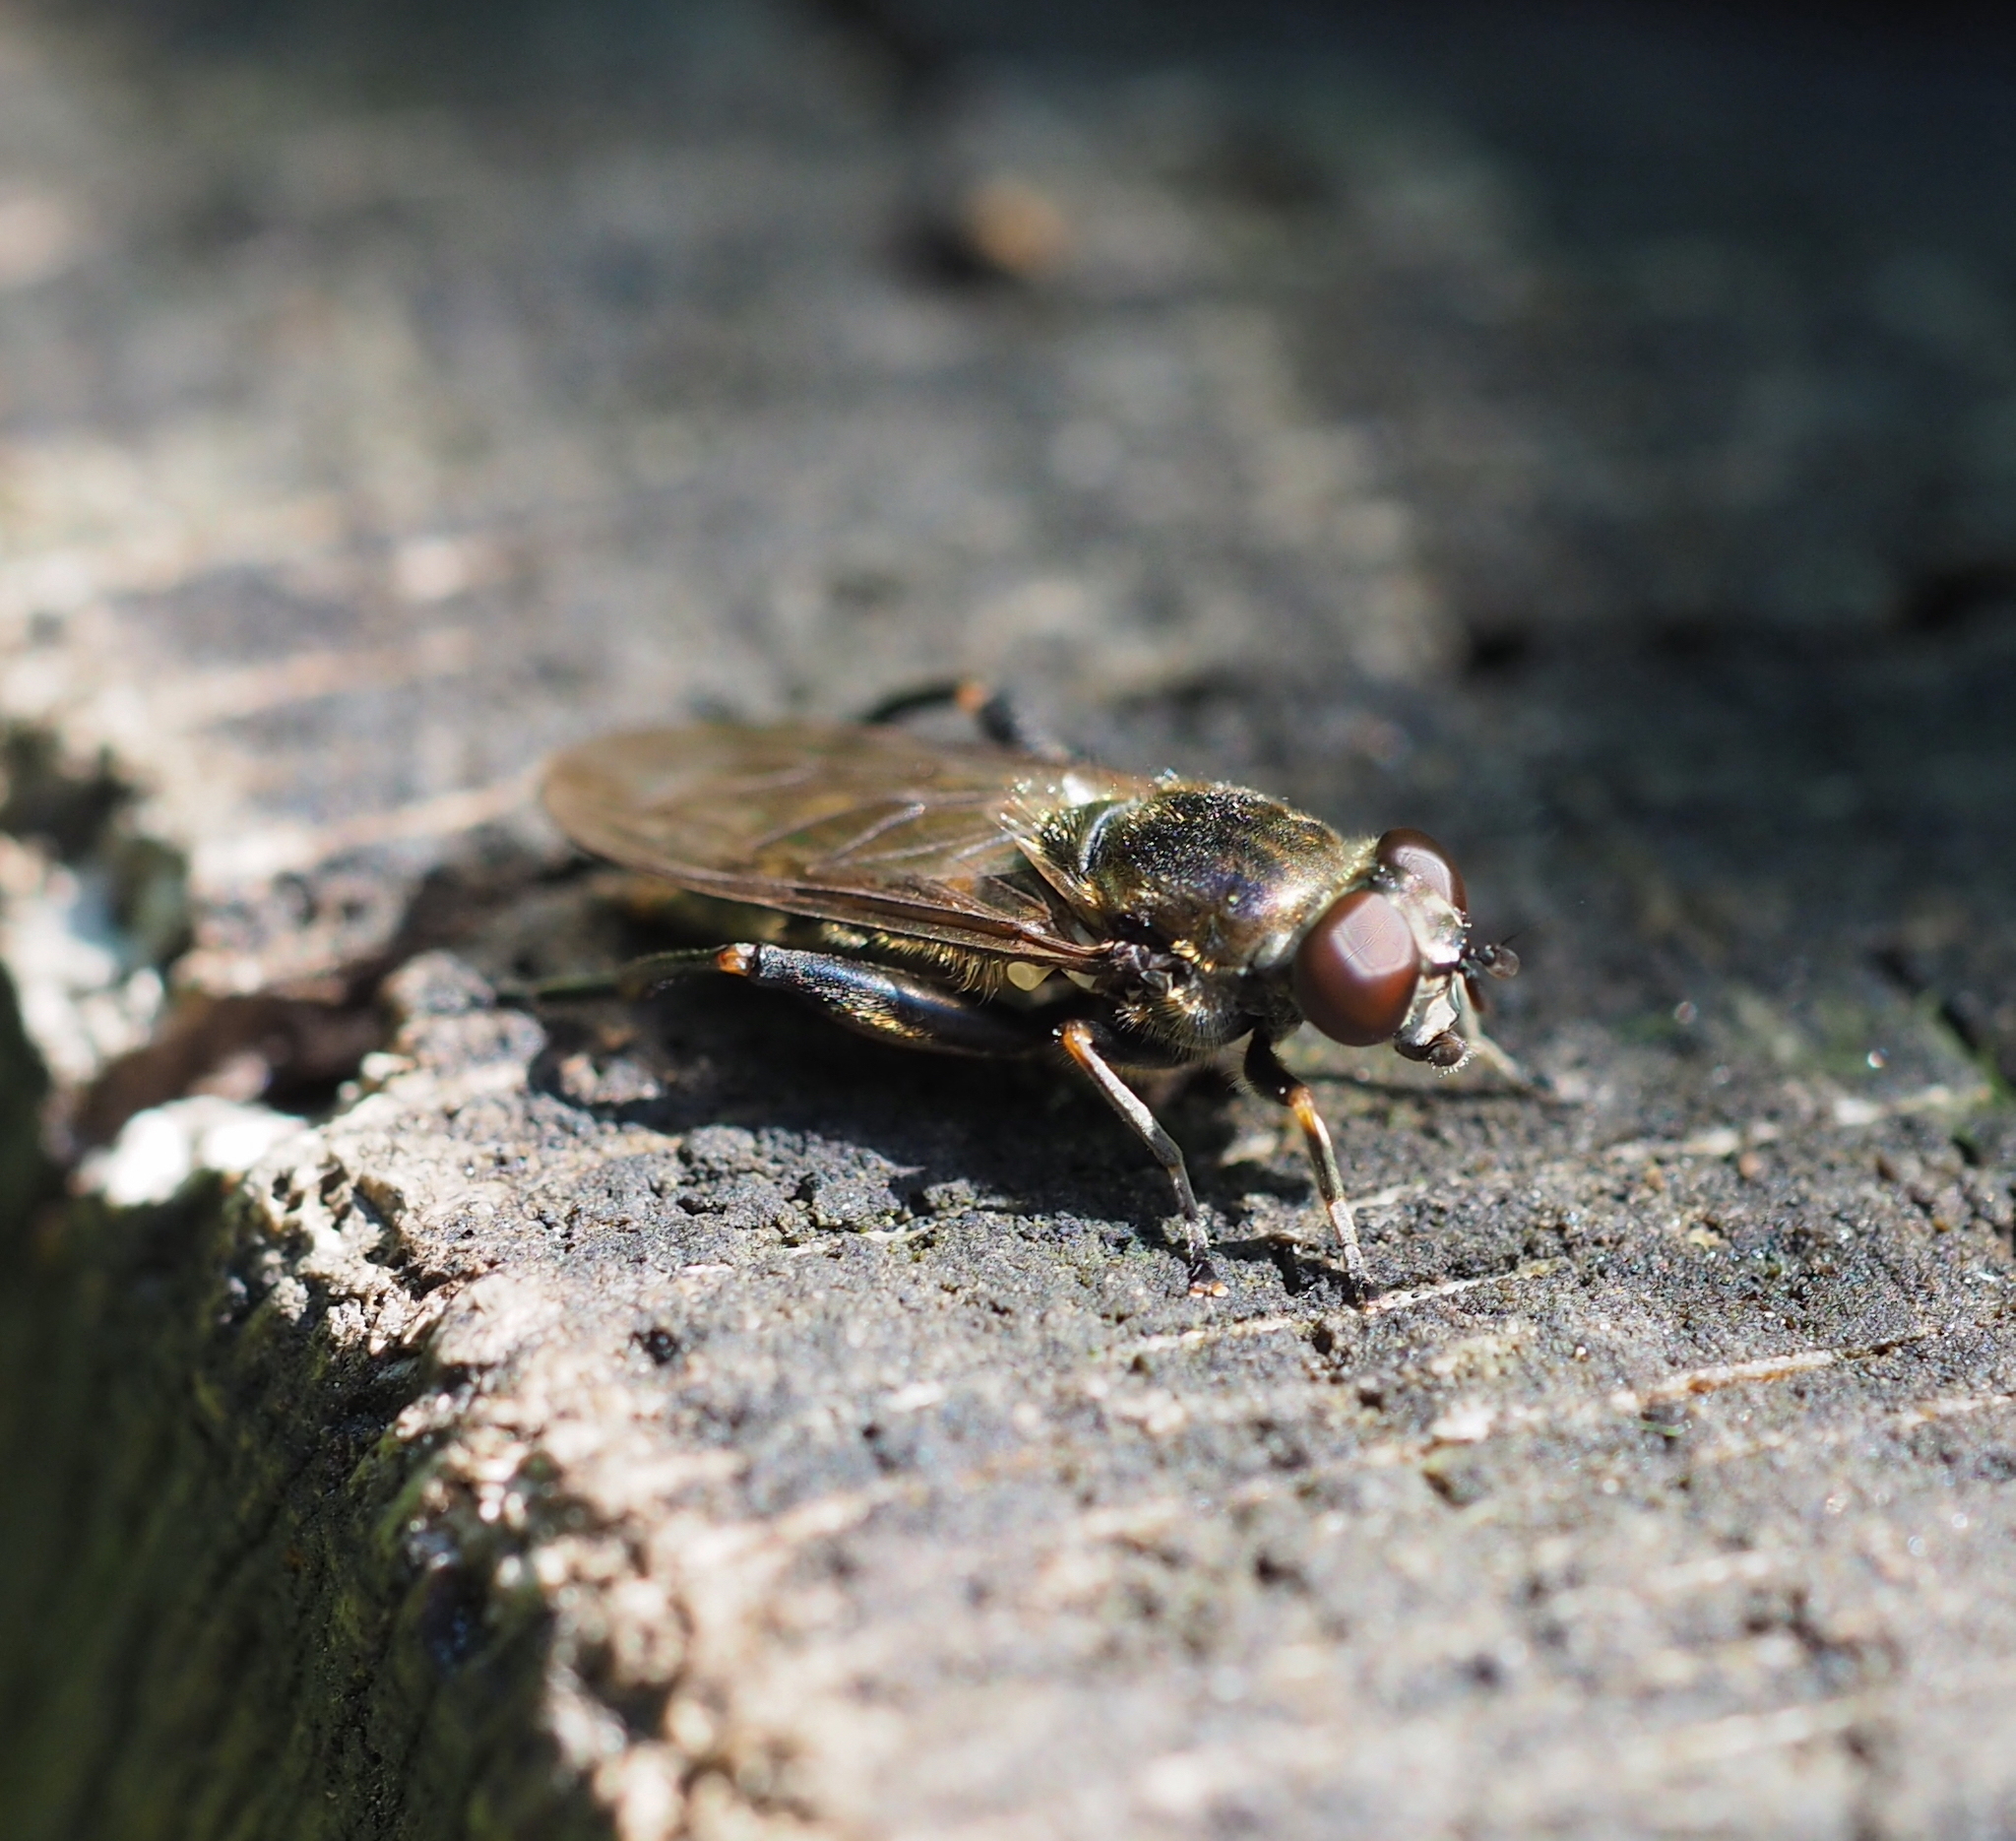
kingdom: Animalia
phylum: Arthropoda
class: Insecta
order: Diptera
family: Syrphidae
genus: Chalcosyrphus
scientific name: Chalcosyrphus nemorum
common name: Dusky-banded forest fly
